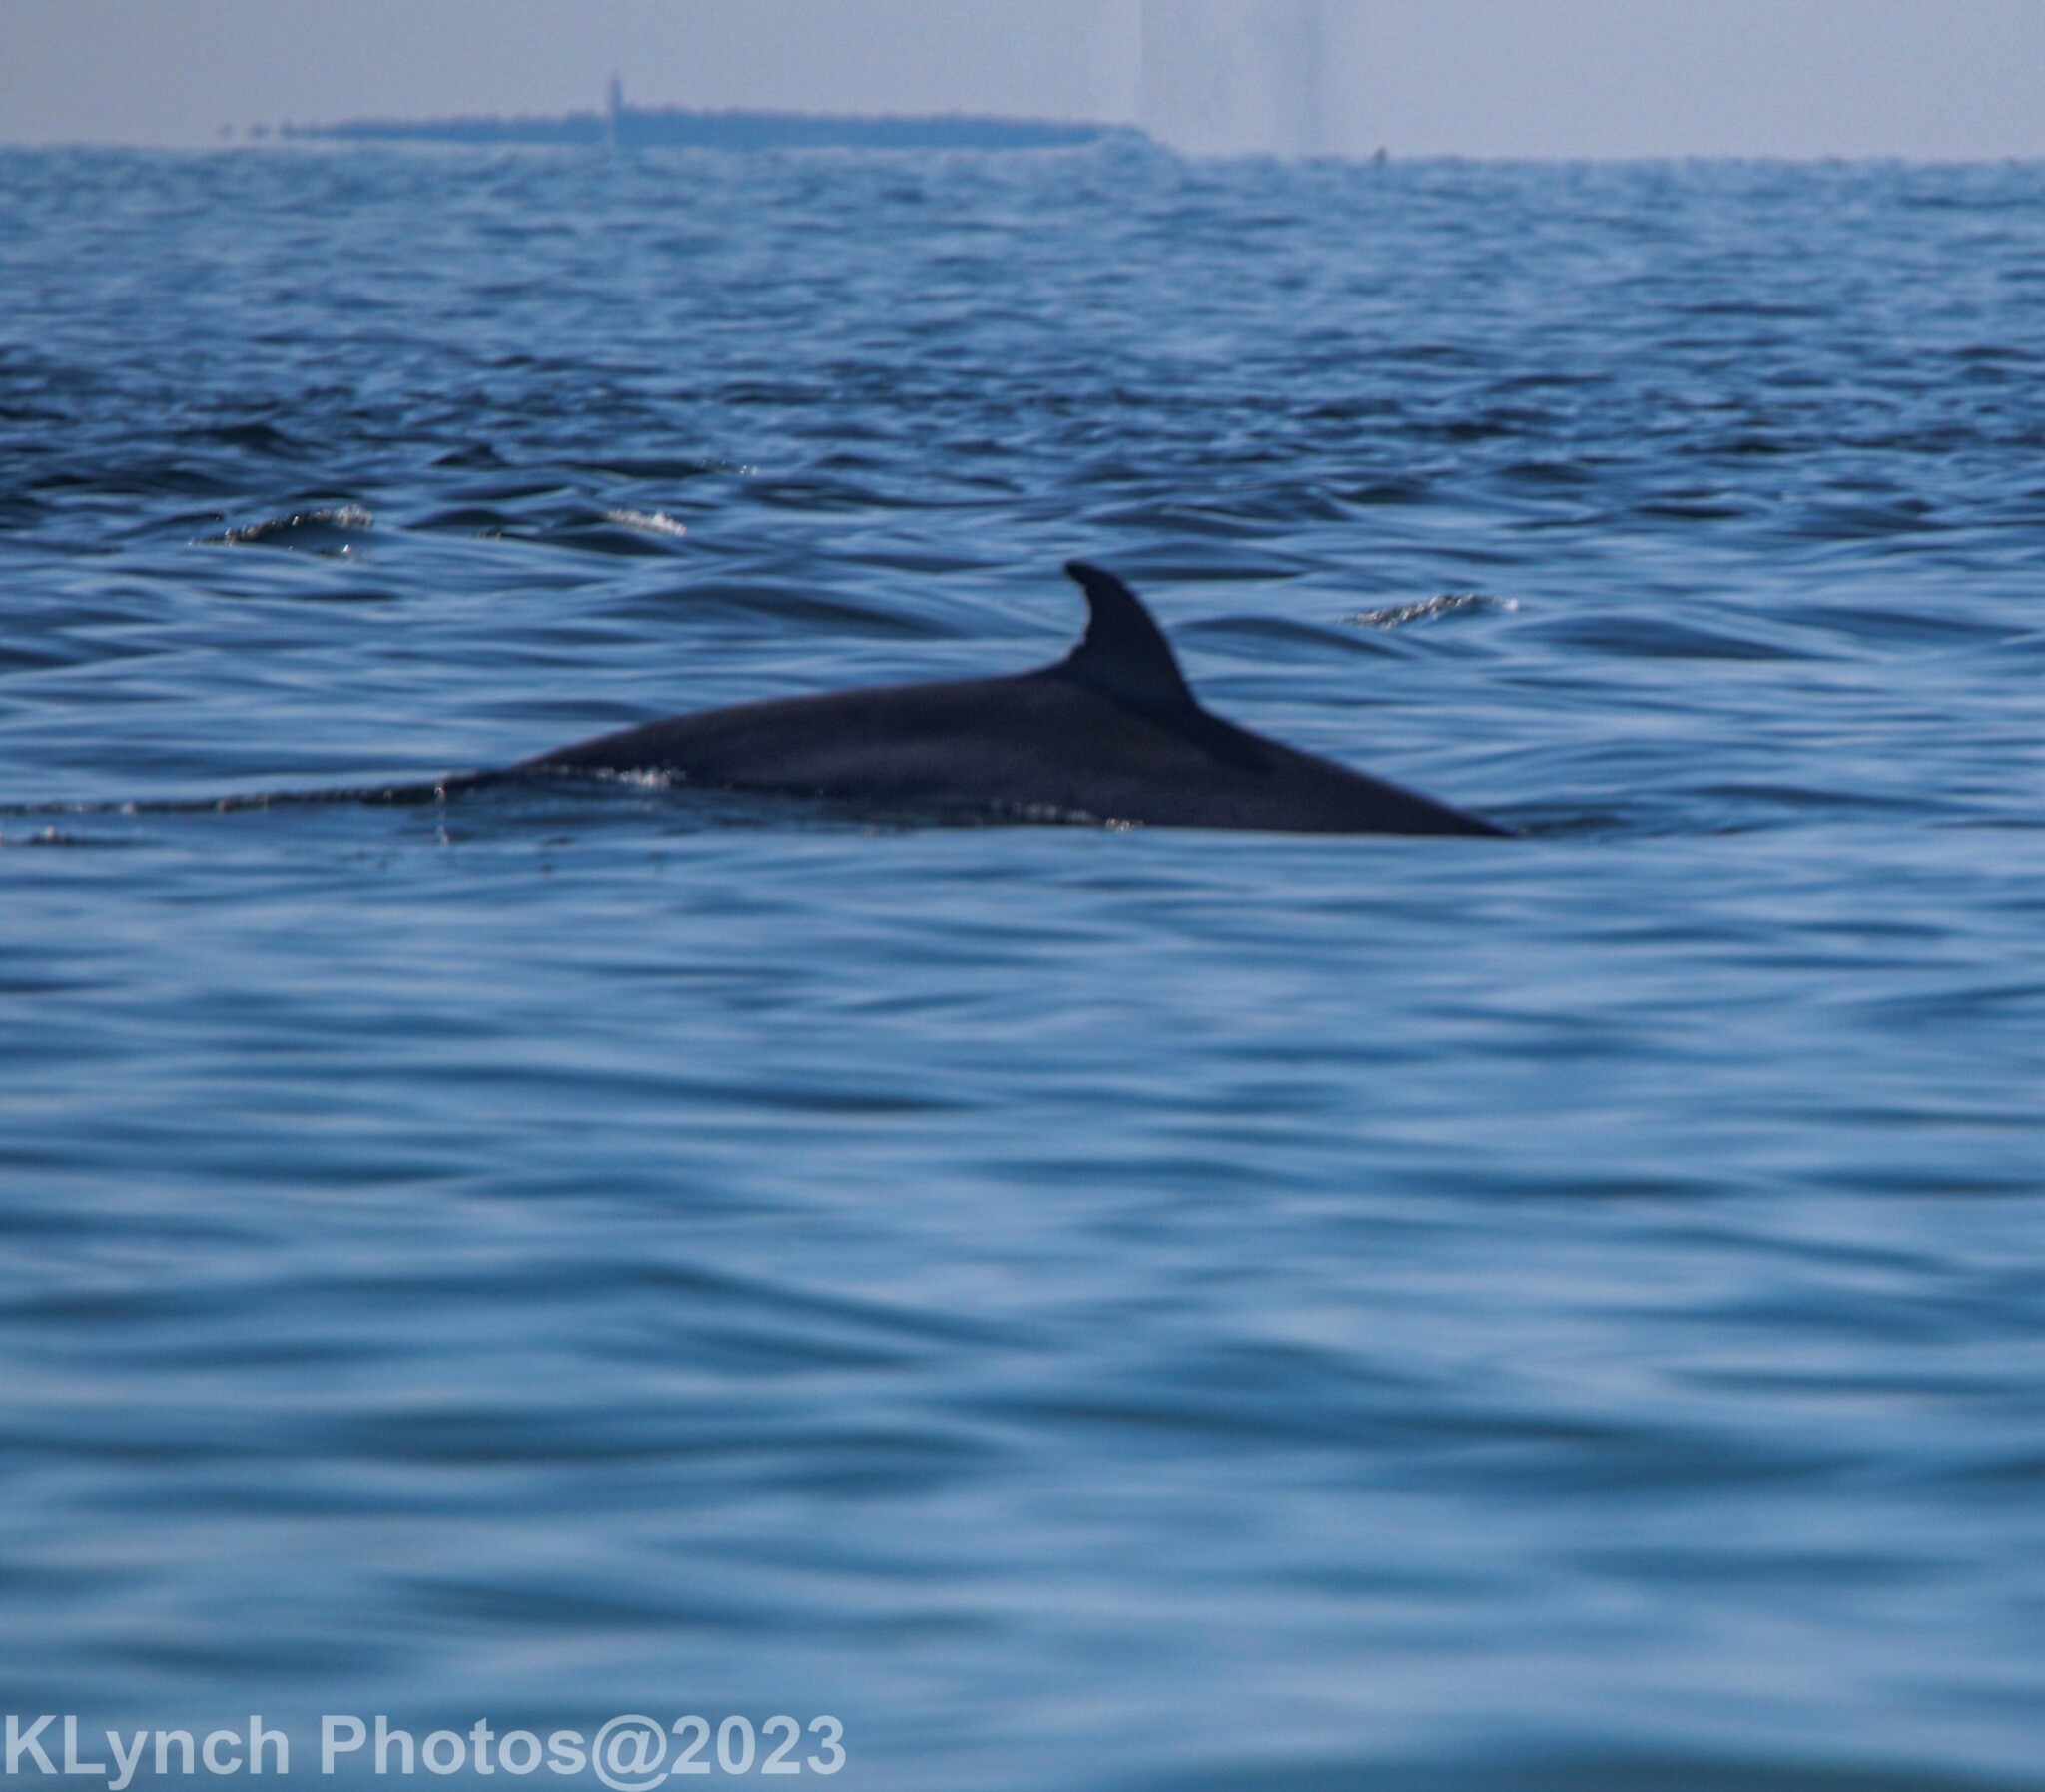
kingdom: Animalia
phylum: Chordata
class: Mammalia
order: Cetacea
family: Balaenopteridae
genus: Balaenoptera
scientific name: Balaenoptera acutorostrata
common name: Common minke whale
